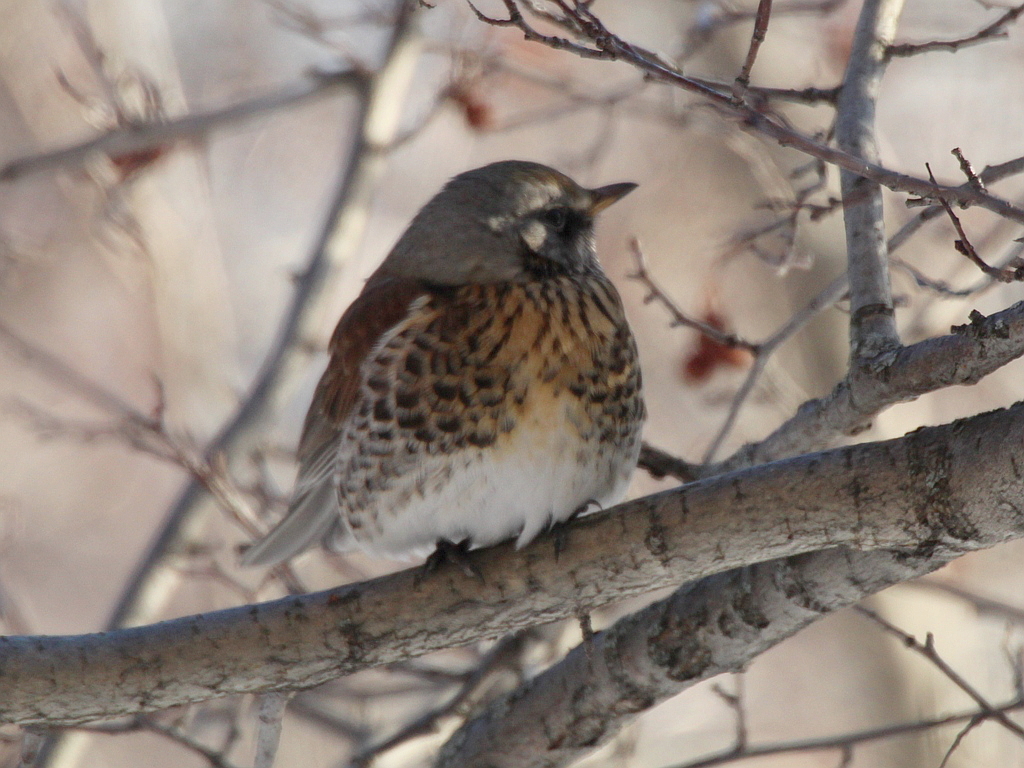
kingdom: Animalia
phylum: Chordata
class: Aves
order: Passeriformes
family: Turdidae
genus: Turdus
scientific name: Turdus pilaris
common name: Fieldfare
